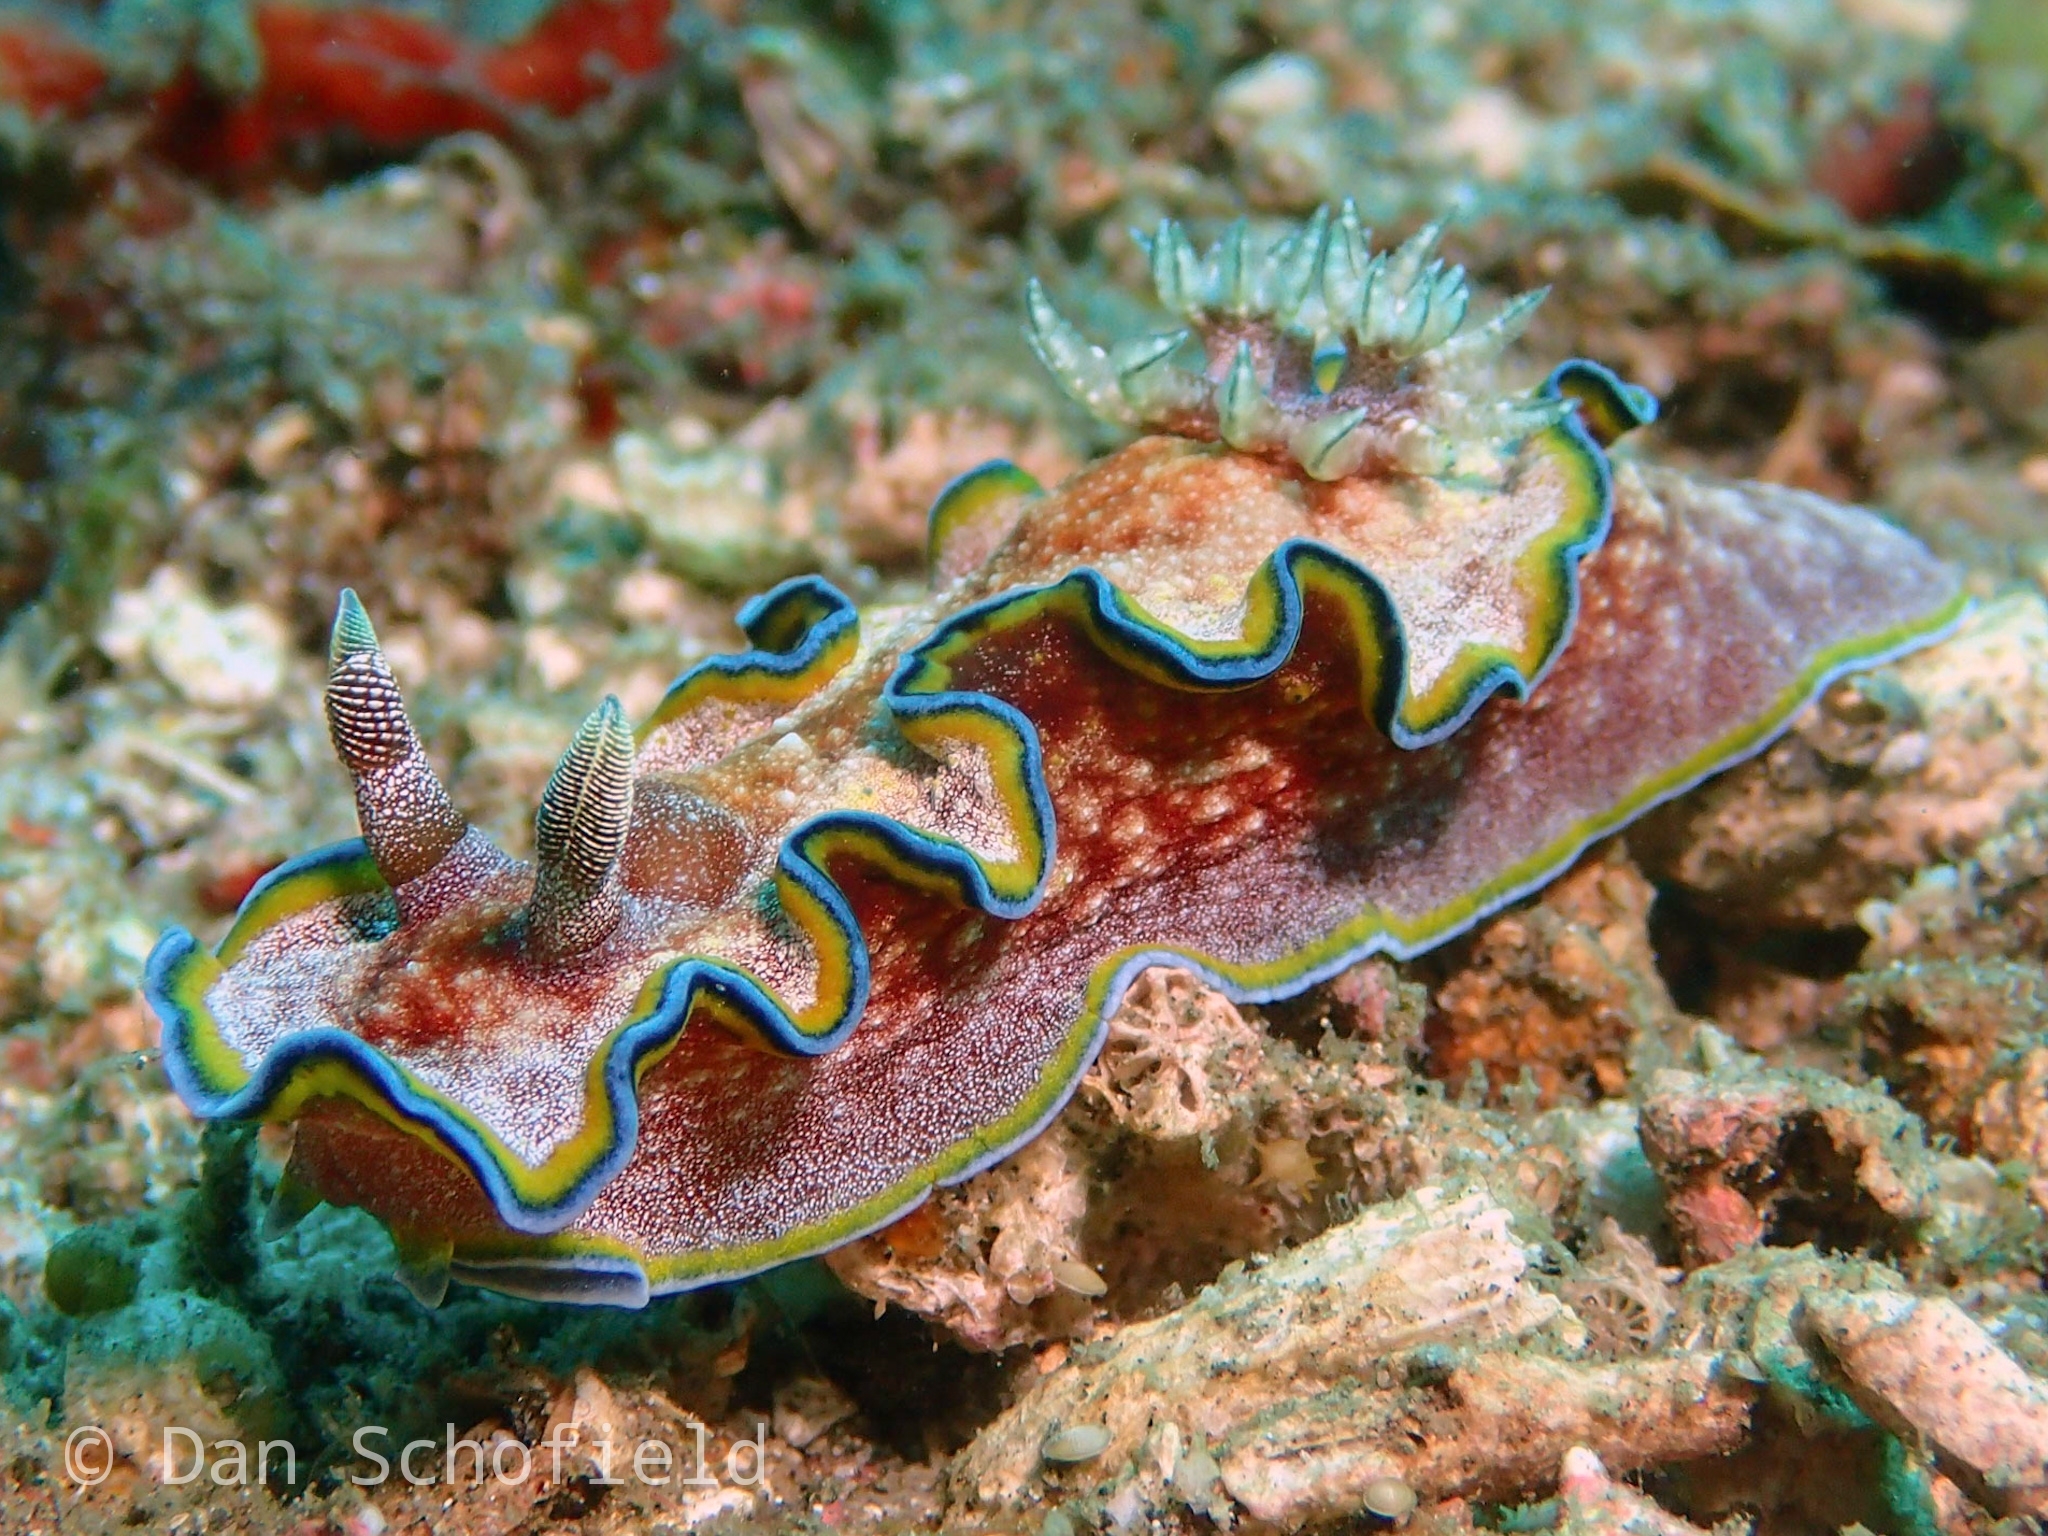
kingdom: Animalia
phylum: Mollusca
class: Gastropoda
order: Nudibranchia
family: Chromodorididae
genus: Glossodoris
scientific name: Glossodoris acosti
